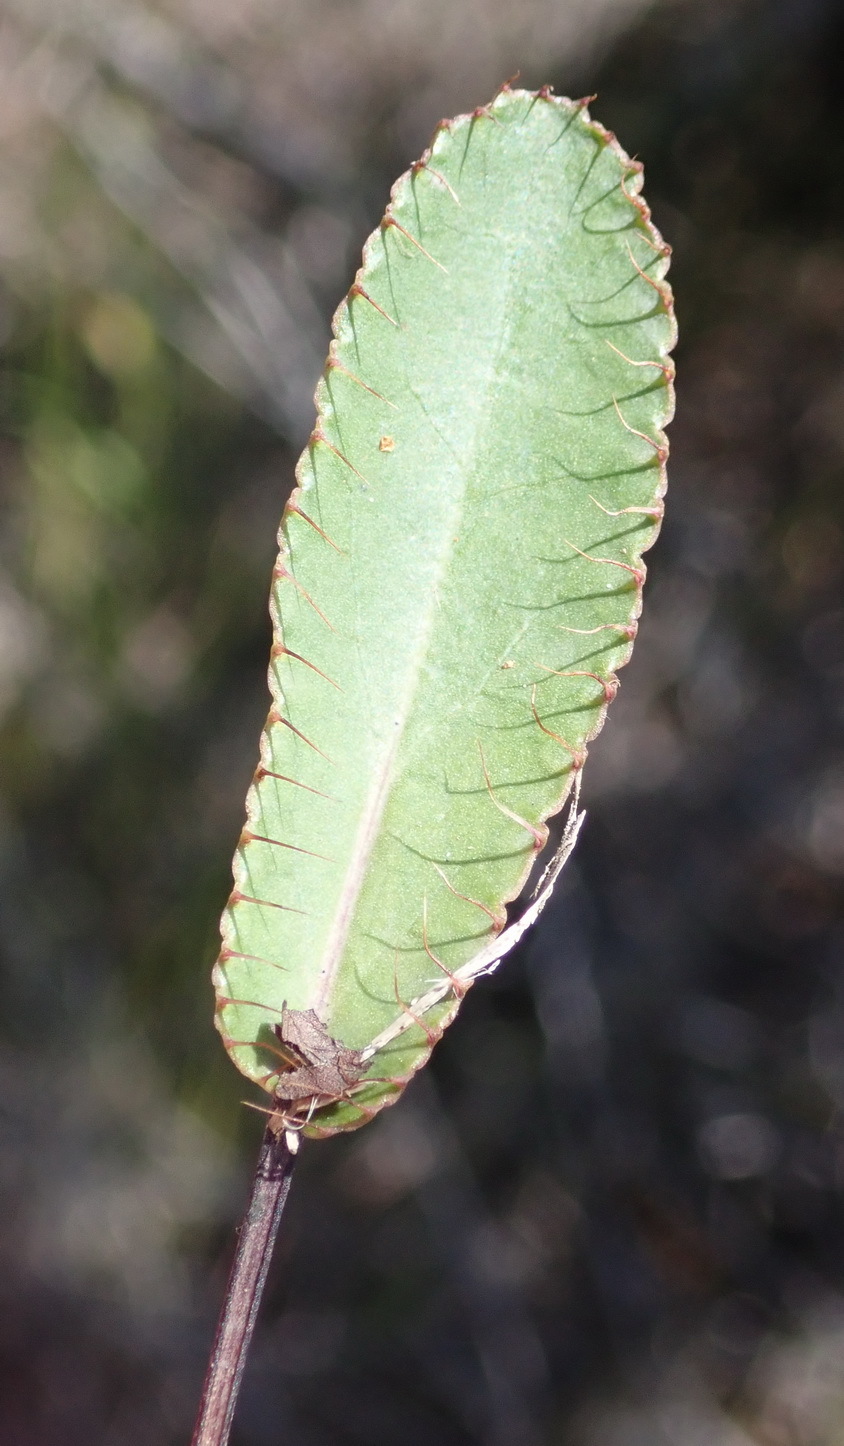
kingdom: Plantae
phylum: Tracheophyta
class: Magnoliopsida
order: Apiales
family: Apiaceae
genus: Alepidea
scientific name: Alepidea capensis
